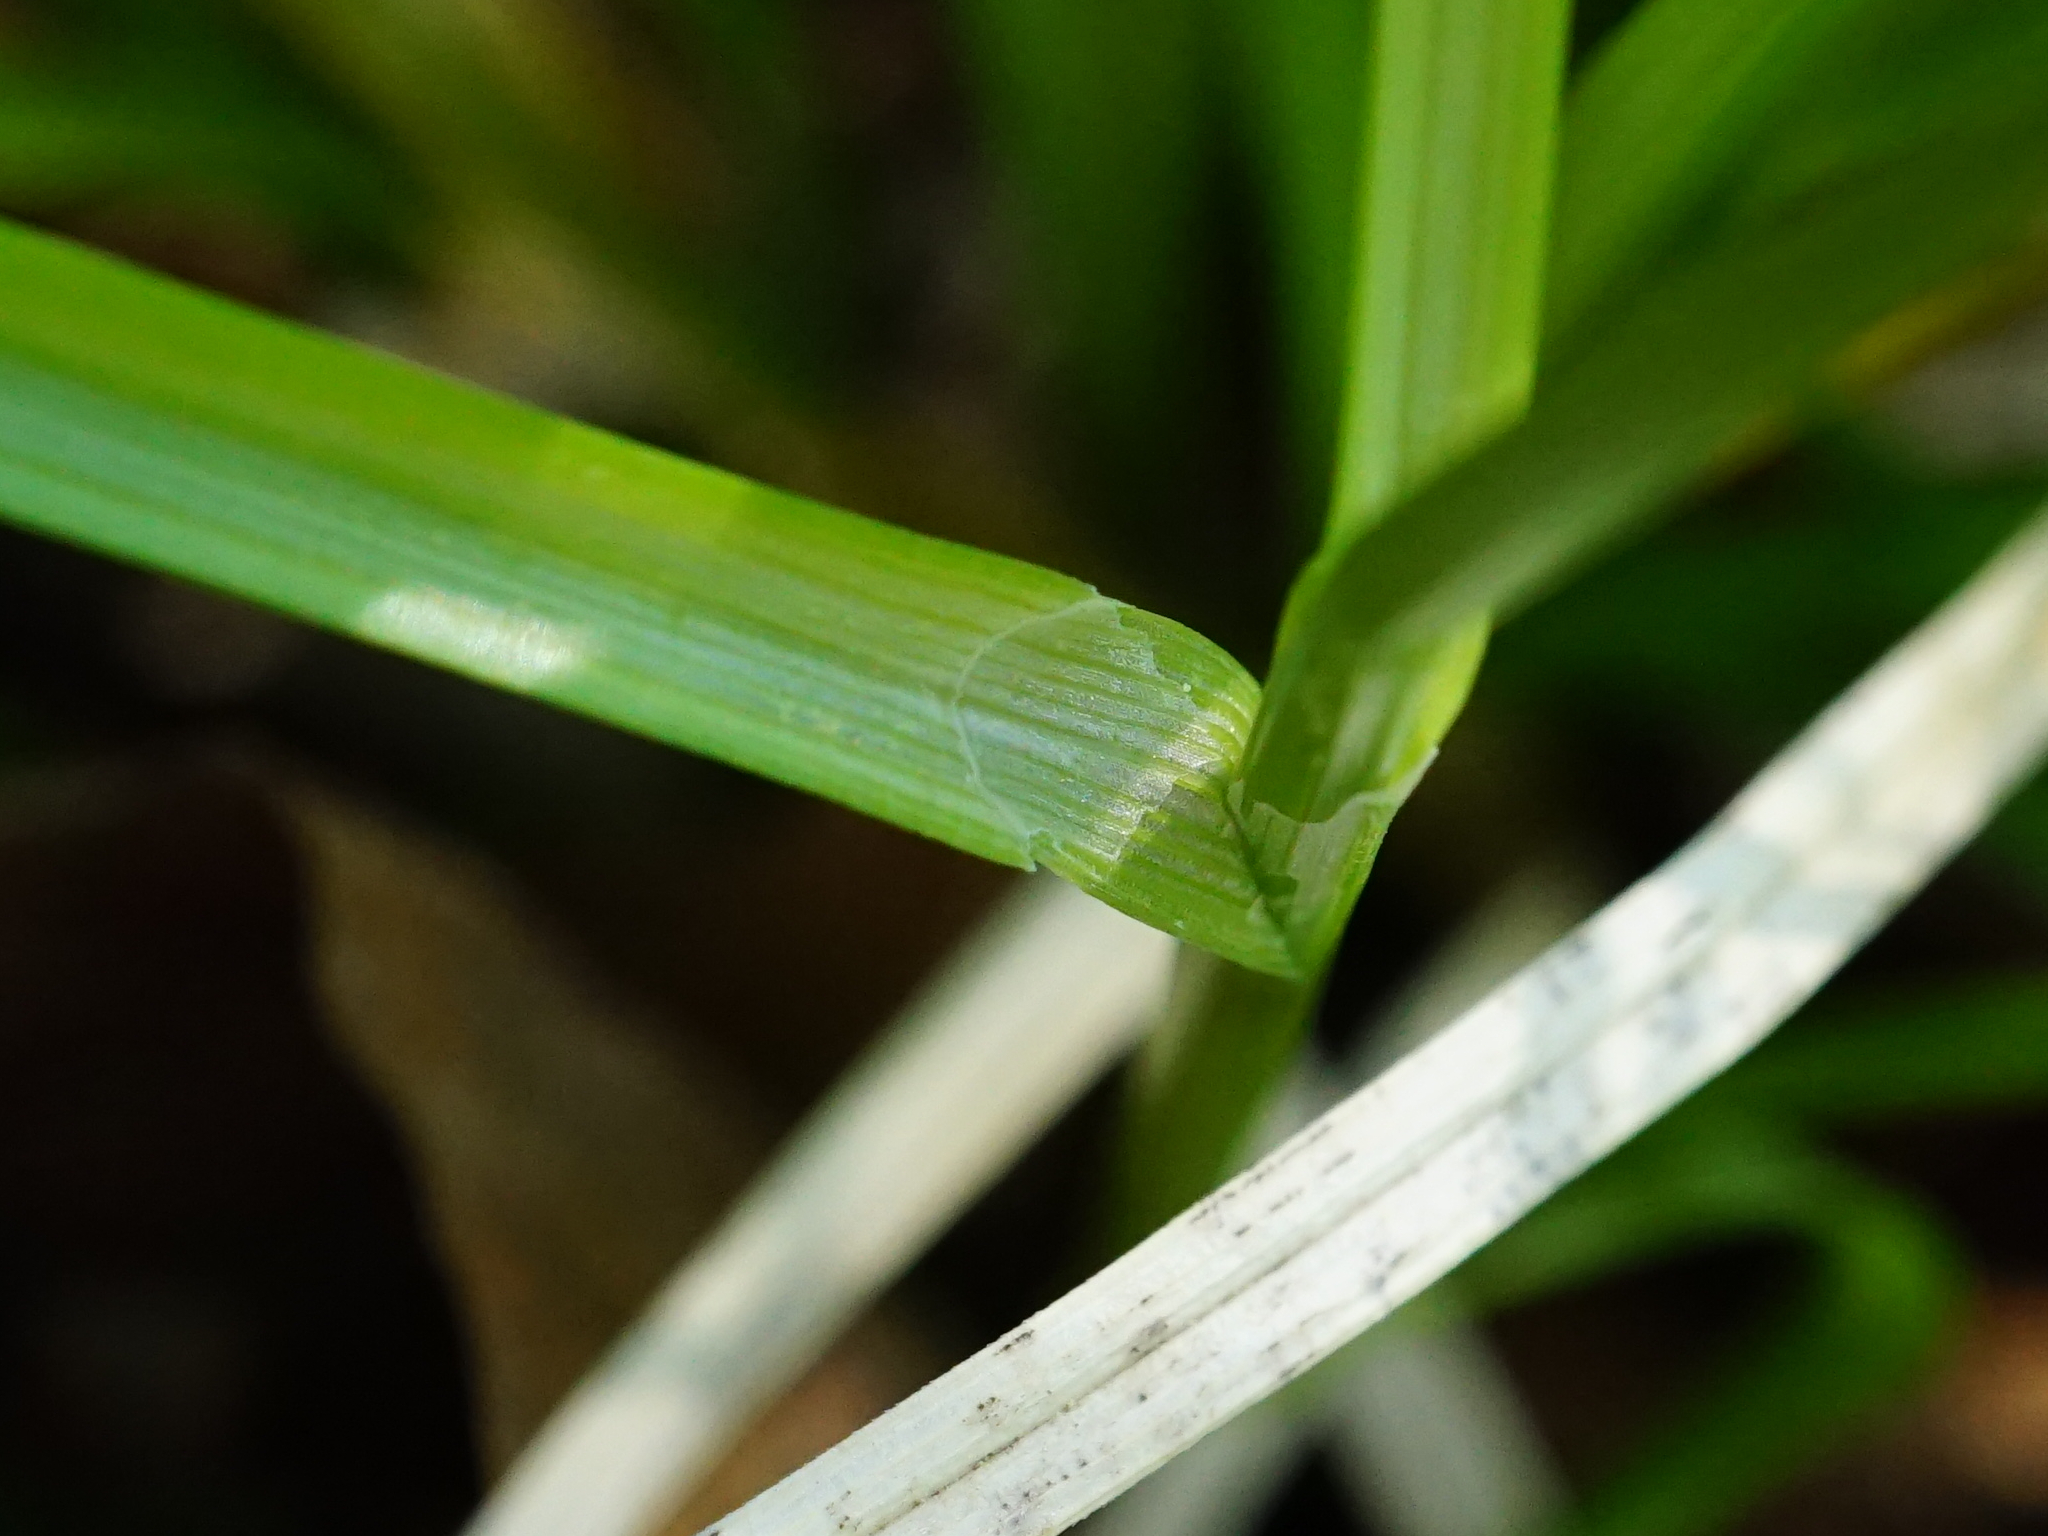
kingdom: Plantae
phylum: Tracheophyta
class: Liliopsida
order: Poales
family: Cyperaceae
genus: Carex
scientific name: Carex leersii
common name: Leers' sedge
